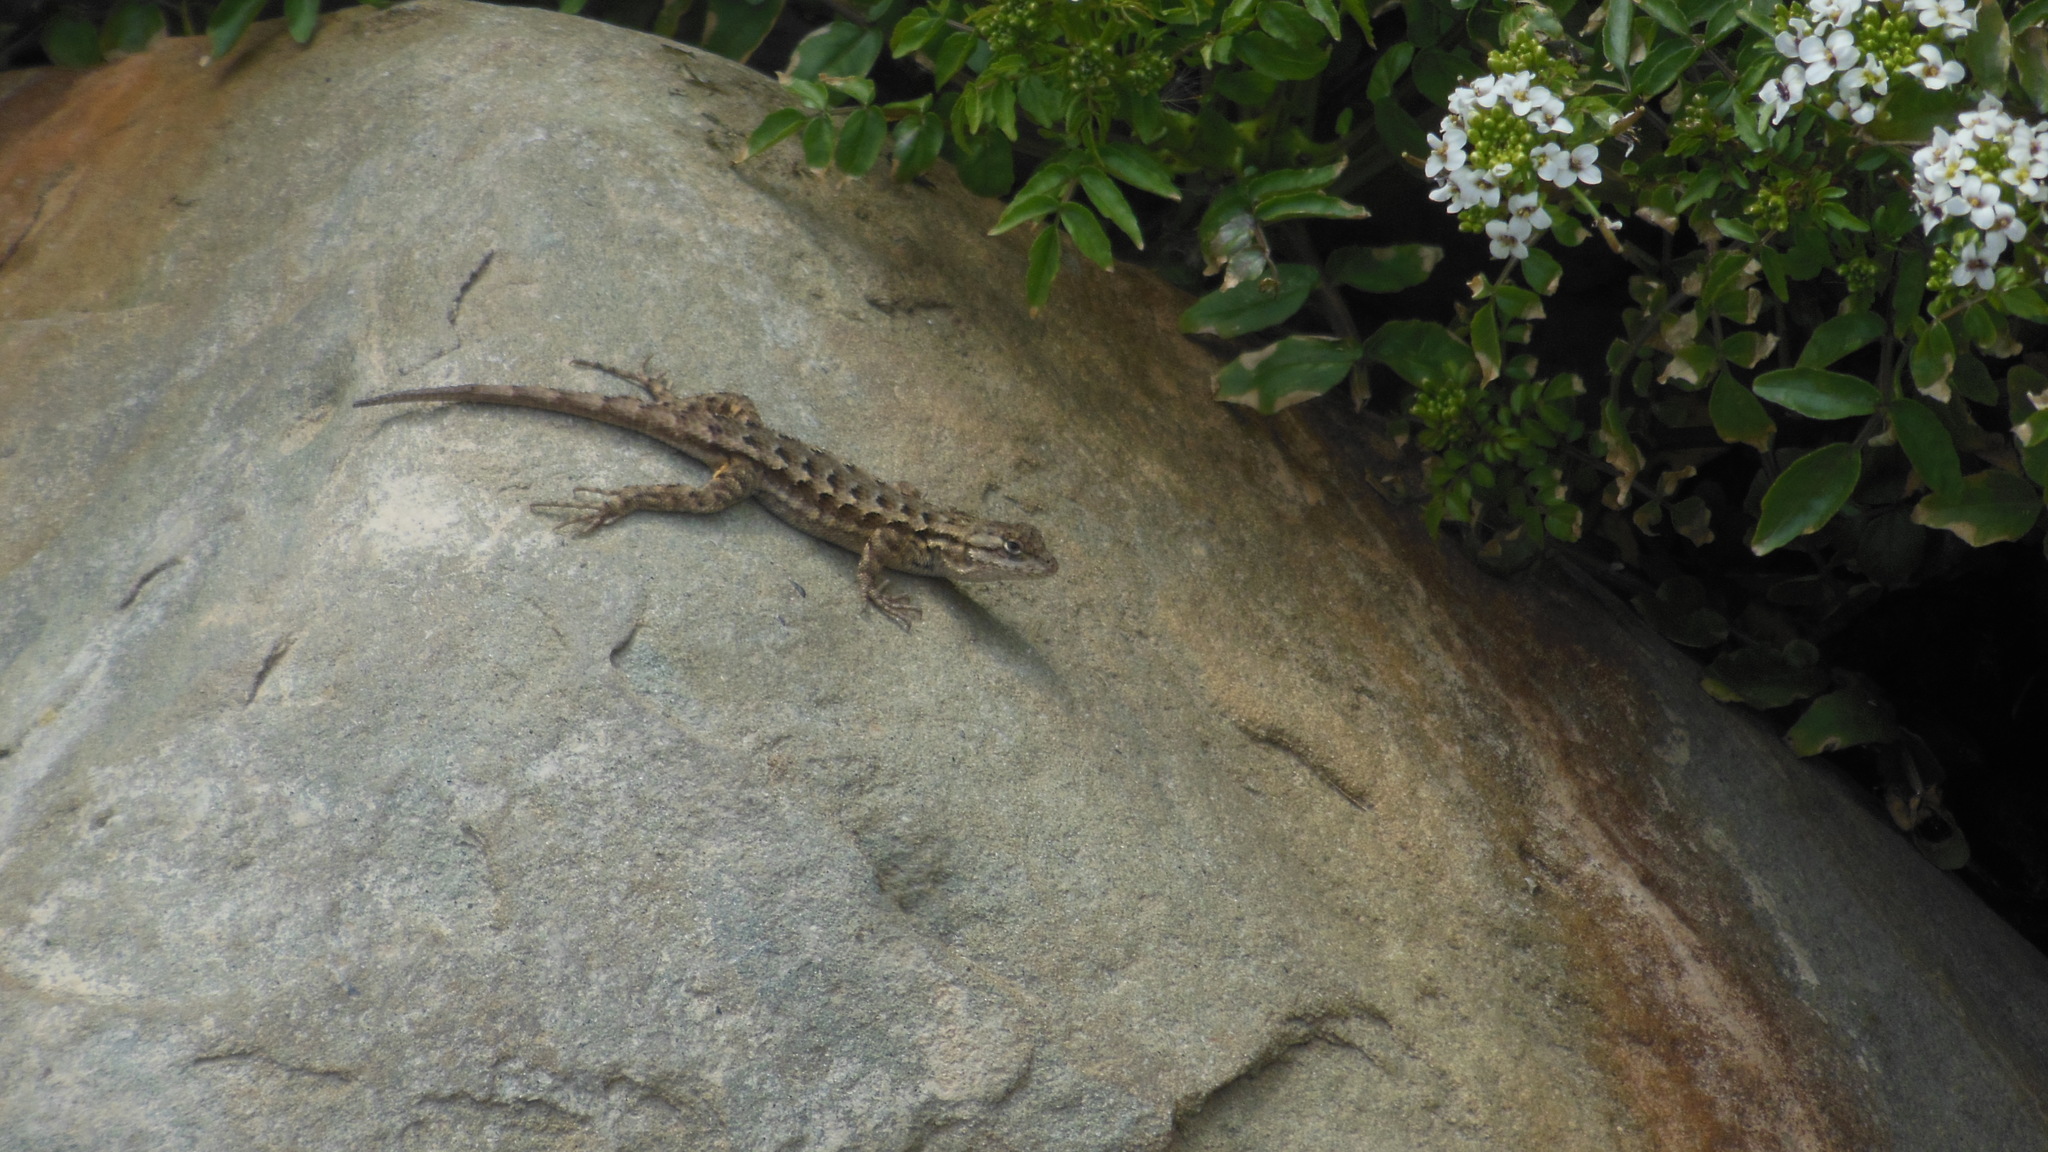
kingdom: Animalia
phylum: Chordata
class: Squamata
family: Phrynosomatidae
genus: Sceloporus
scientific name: Sceloporus occidentalis
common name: Western fence lizard
